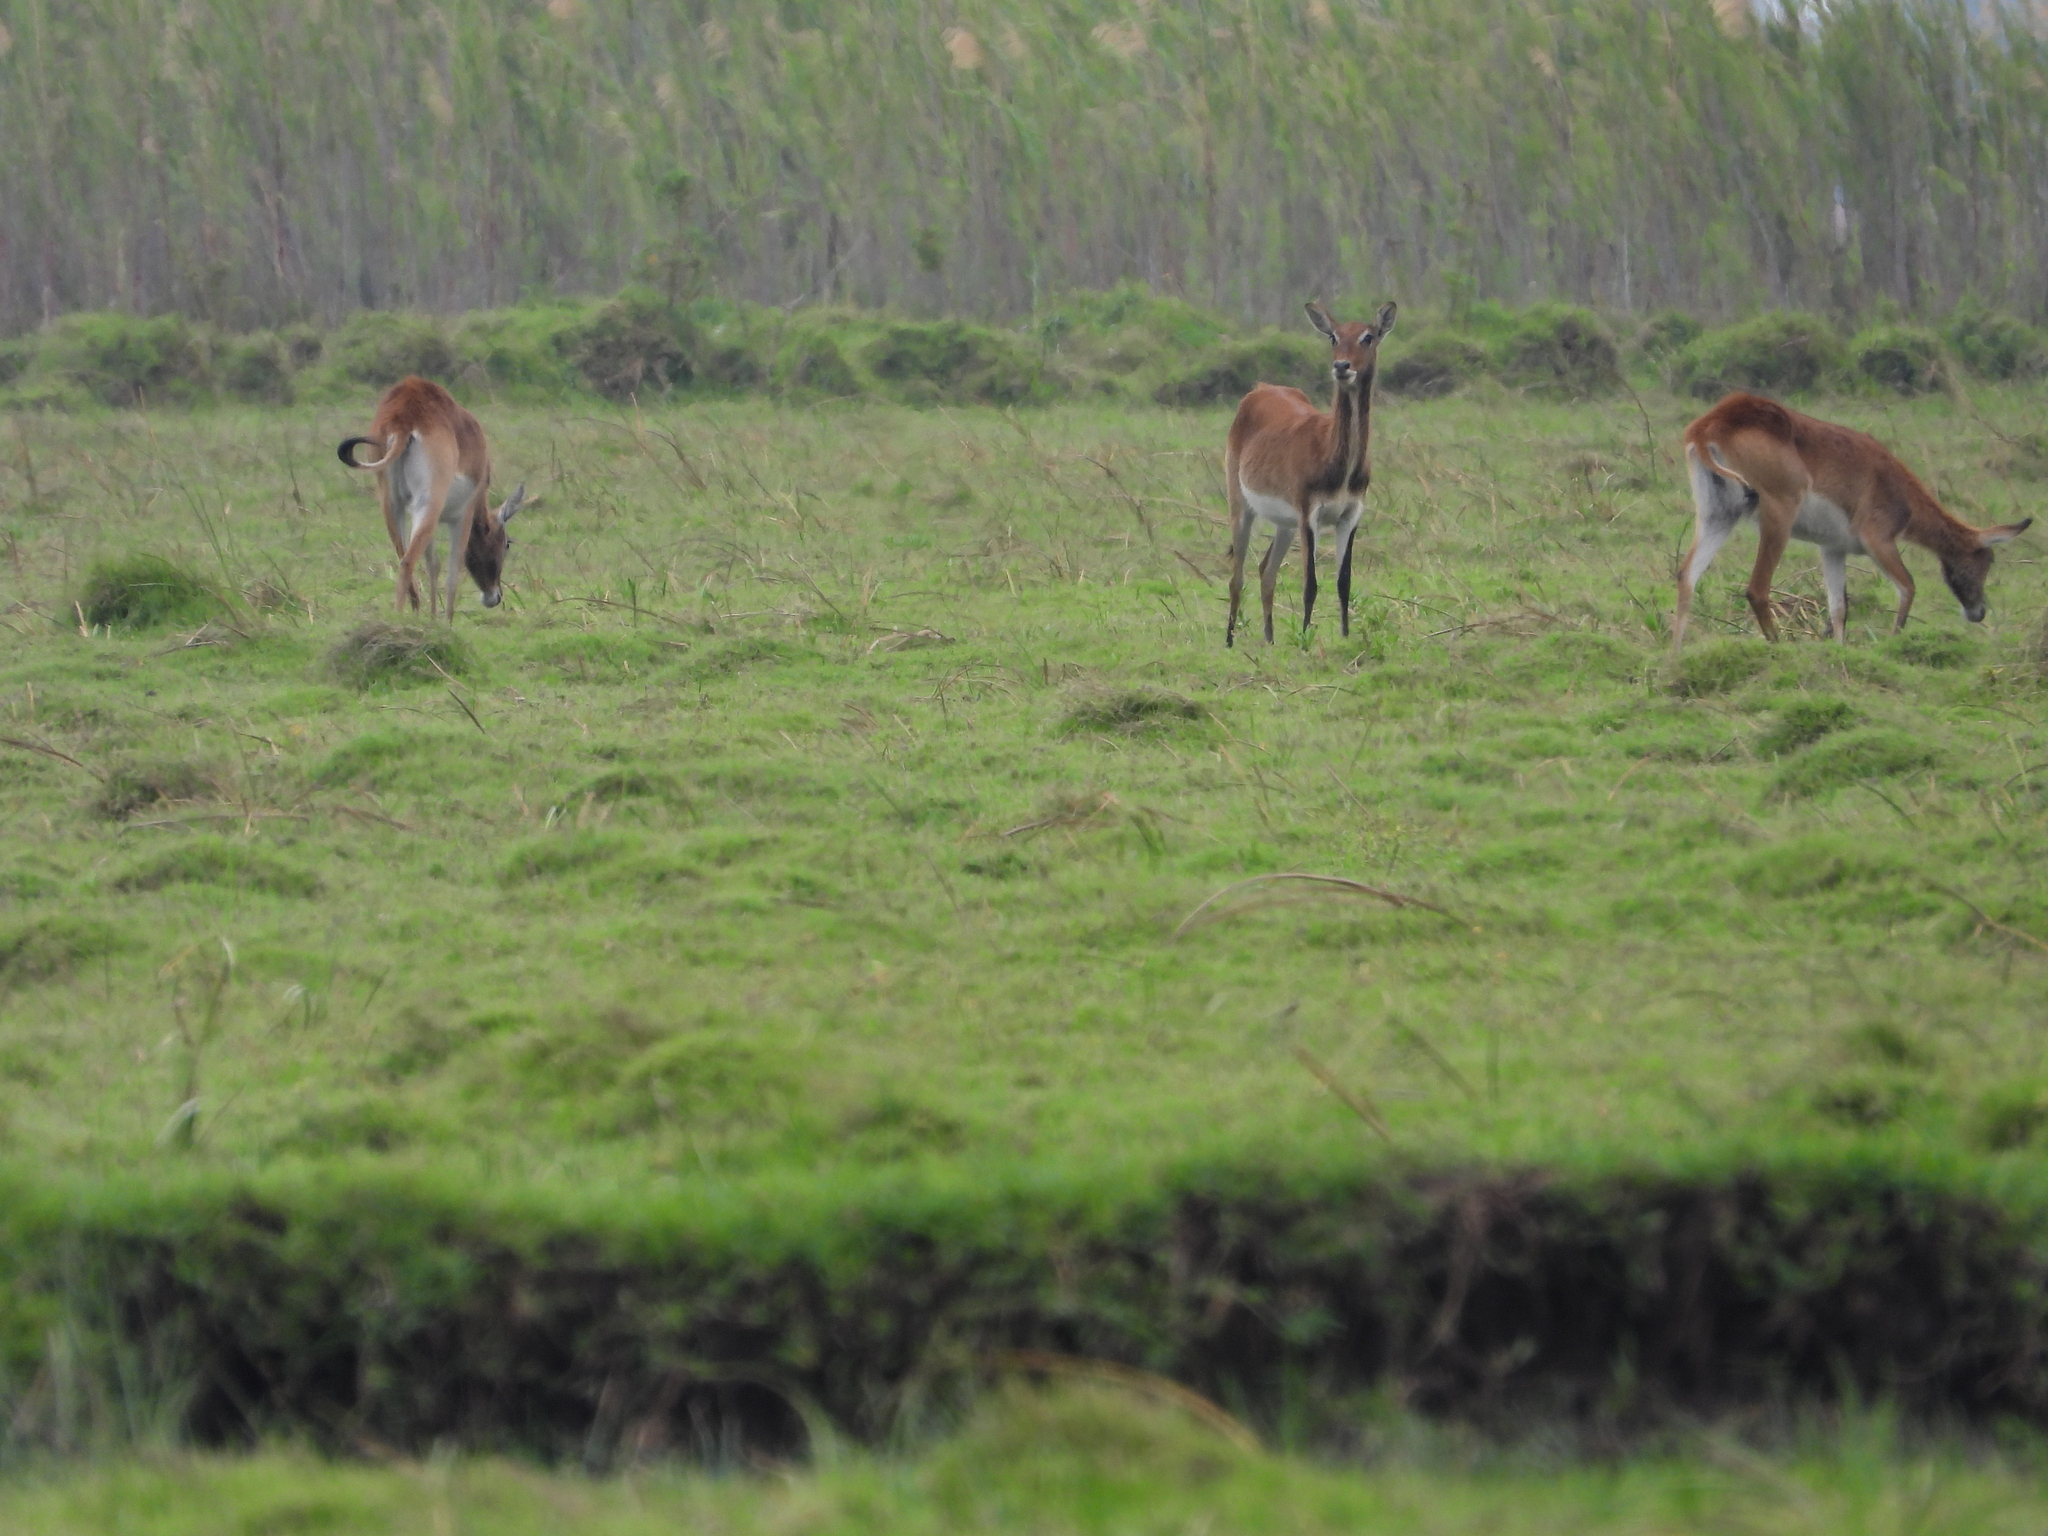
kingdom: Animalia
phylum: Chordata
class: Mammalia
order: Artiodactyla
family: Bovidae
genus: Kobus
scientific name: Kobus leche
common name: Lechwe
